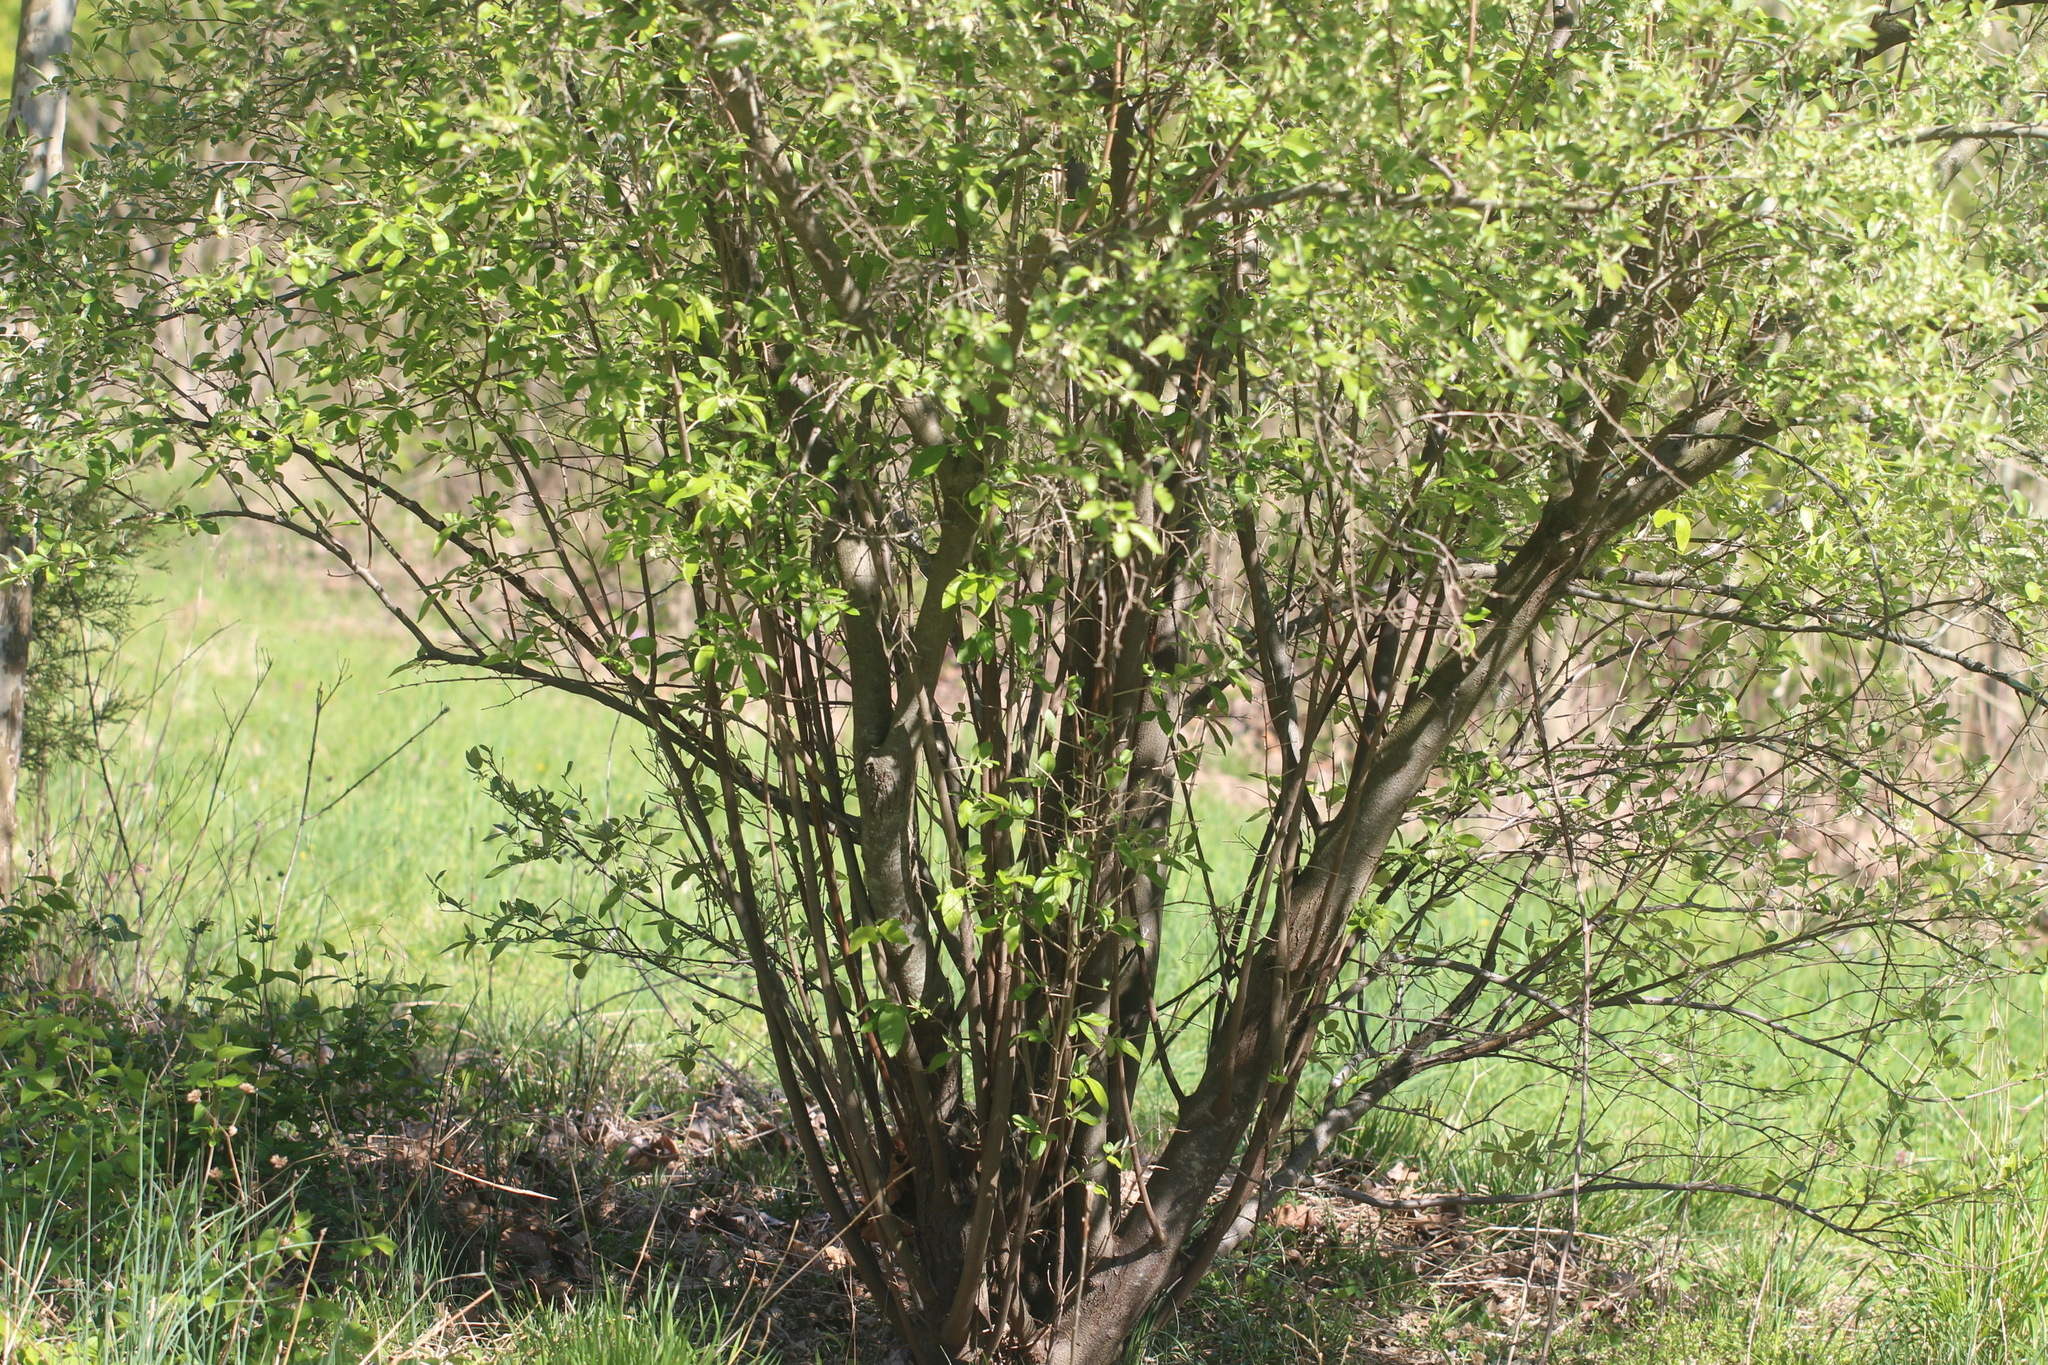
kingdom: Plantae
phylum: Tracheophyta
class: Magnoliopsida
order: Rosales
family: Elaeagnaceae
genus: Elaeagnus
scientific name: Elaeagnus umbellata
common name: Autumn olive
